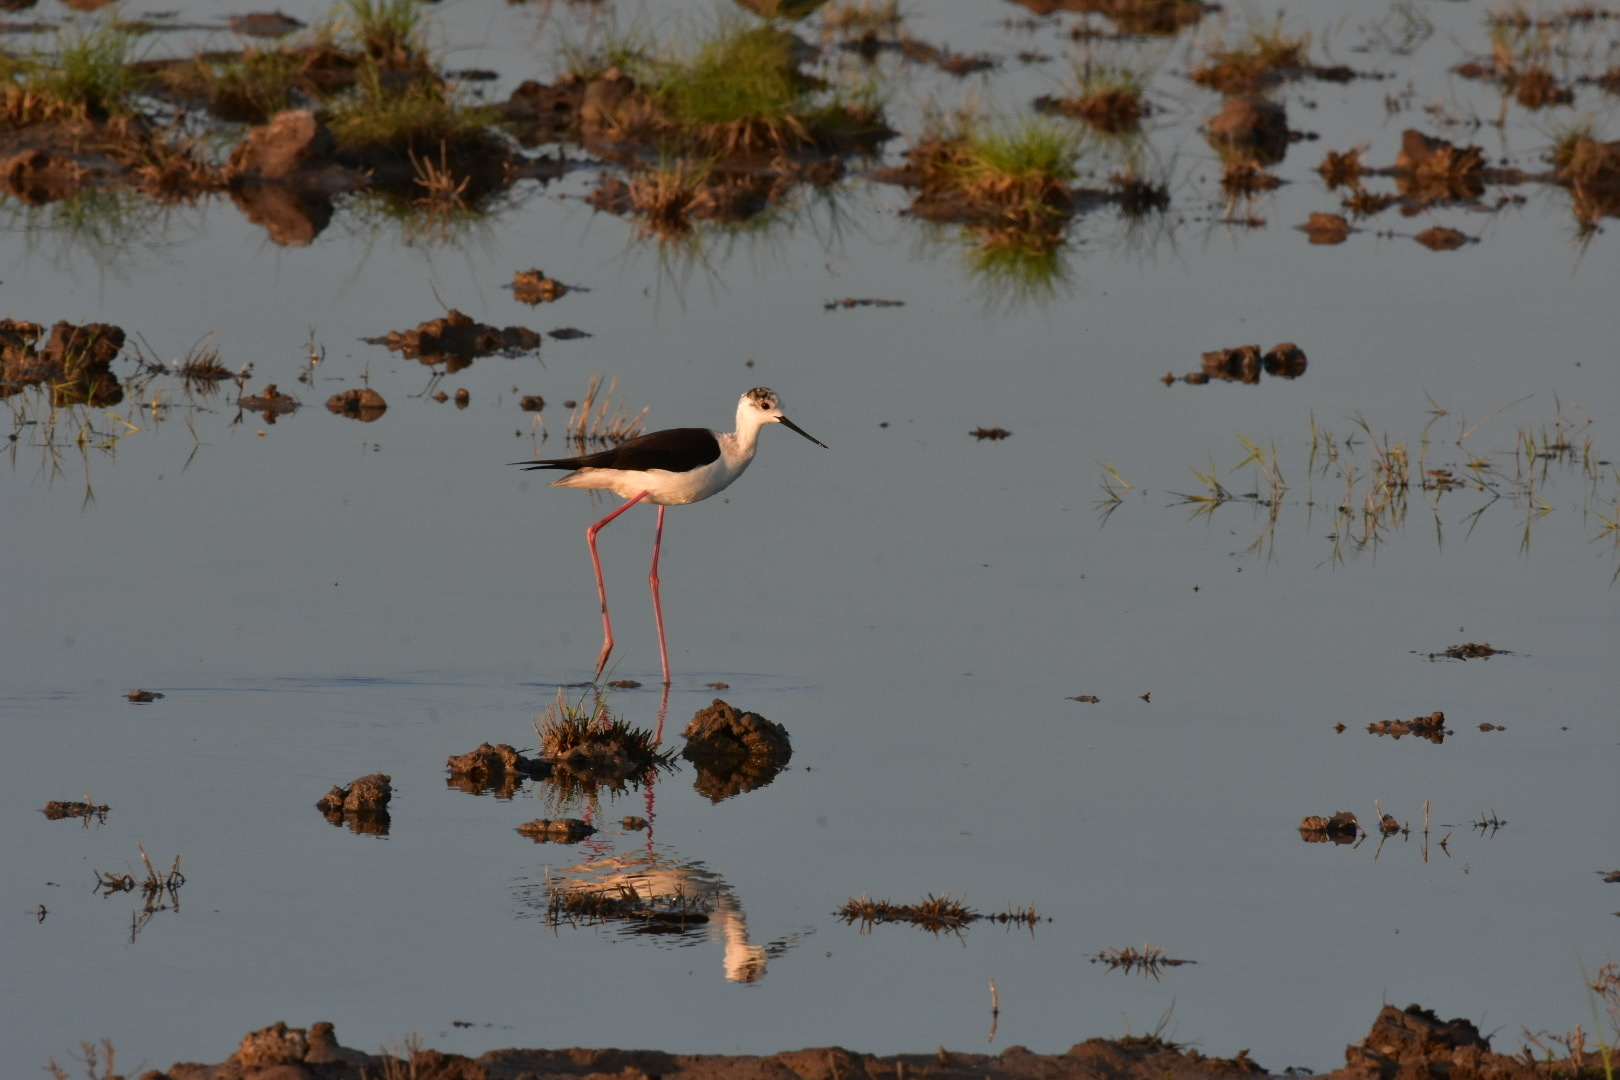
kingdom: Animalia
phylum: Chordata
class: Aves
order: Charadriiformes
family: Recurvirostridae
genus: Himantopus
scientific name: Himantopus himantopus
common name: Black-winged stilt
